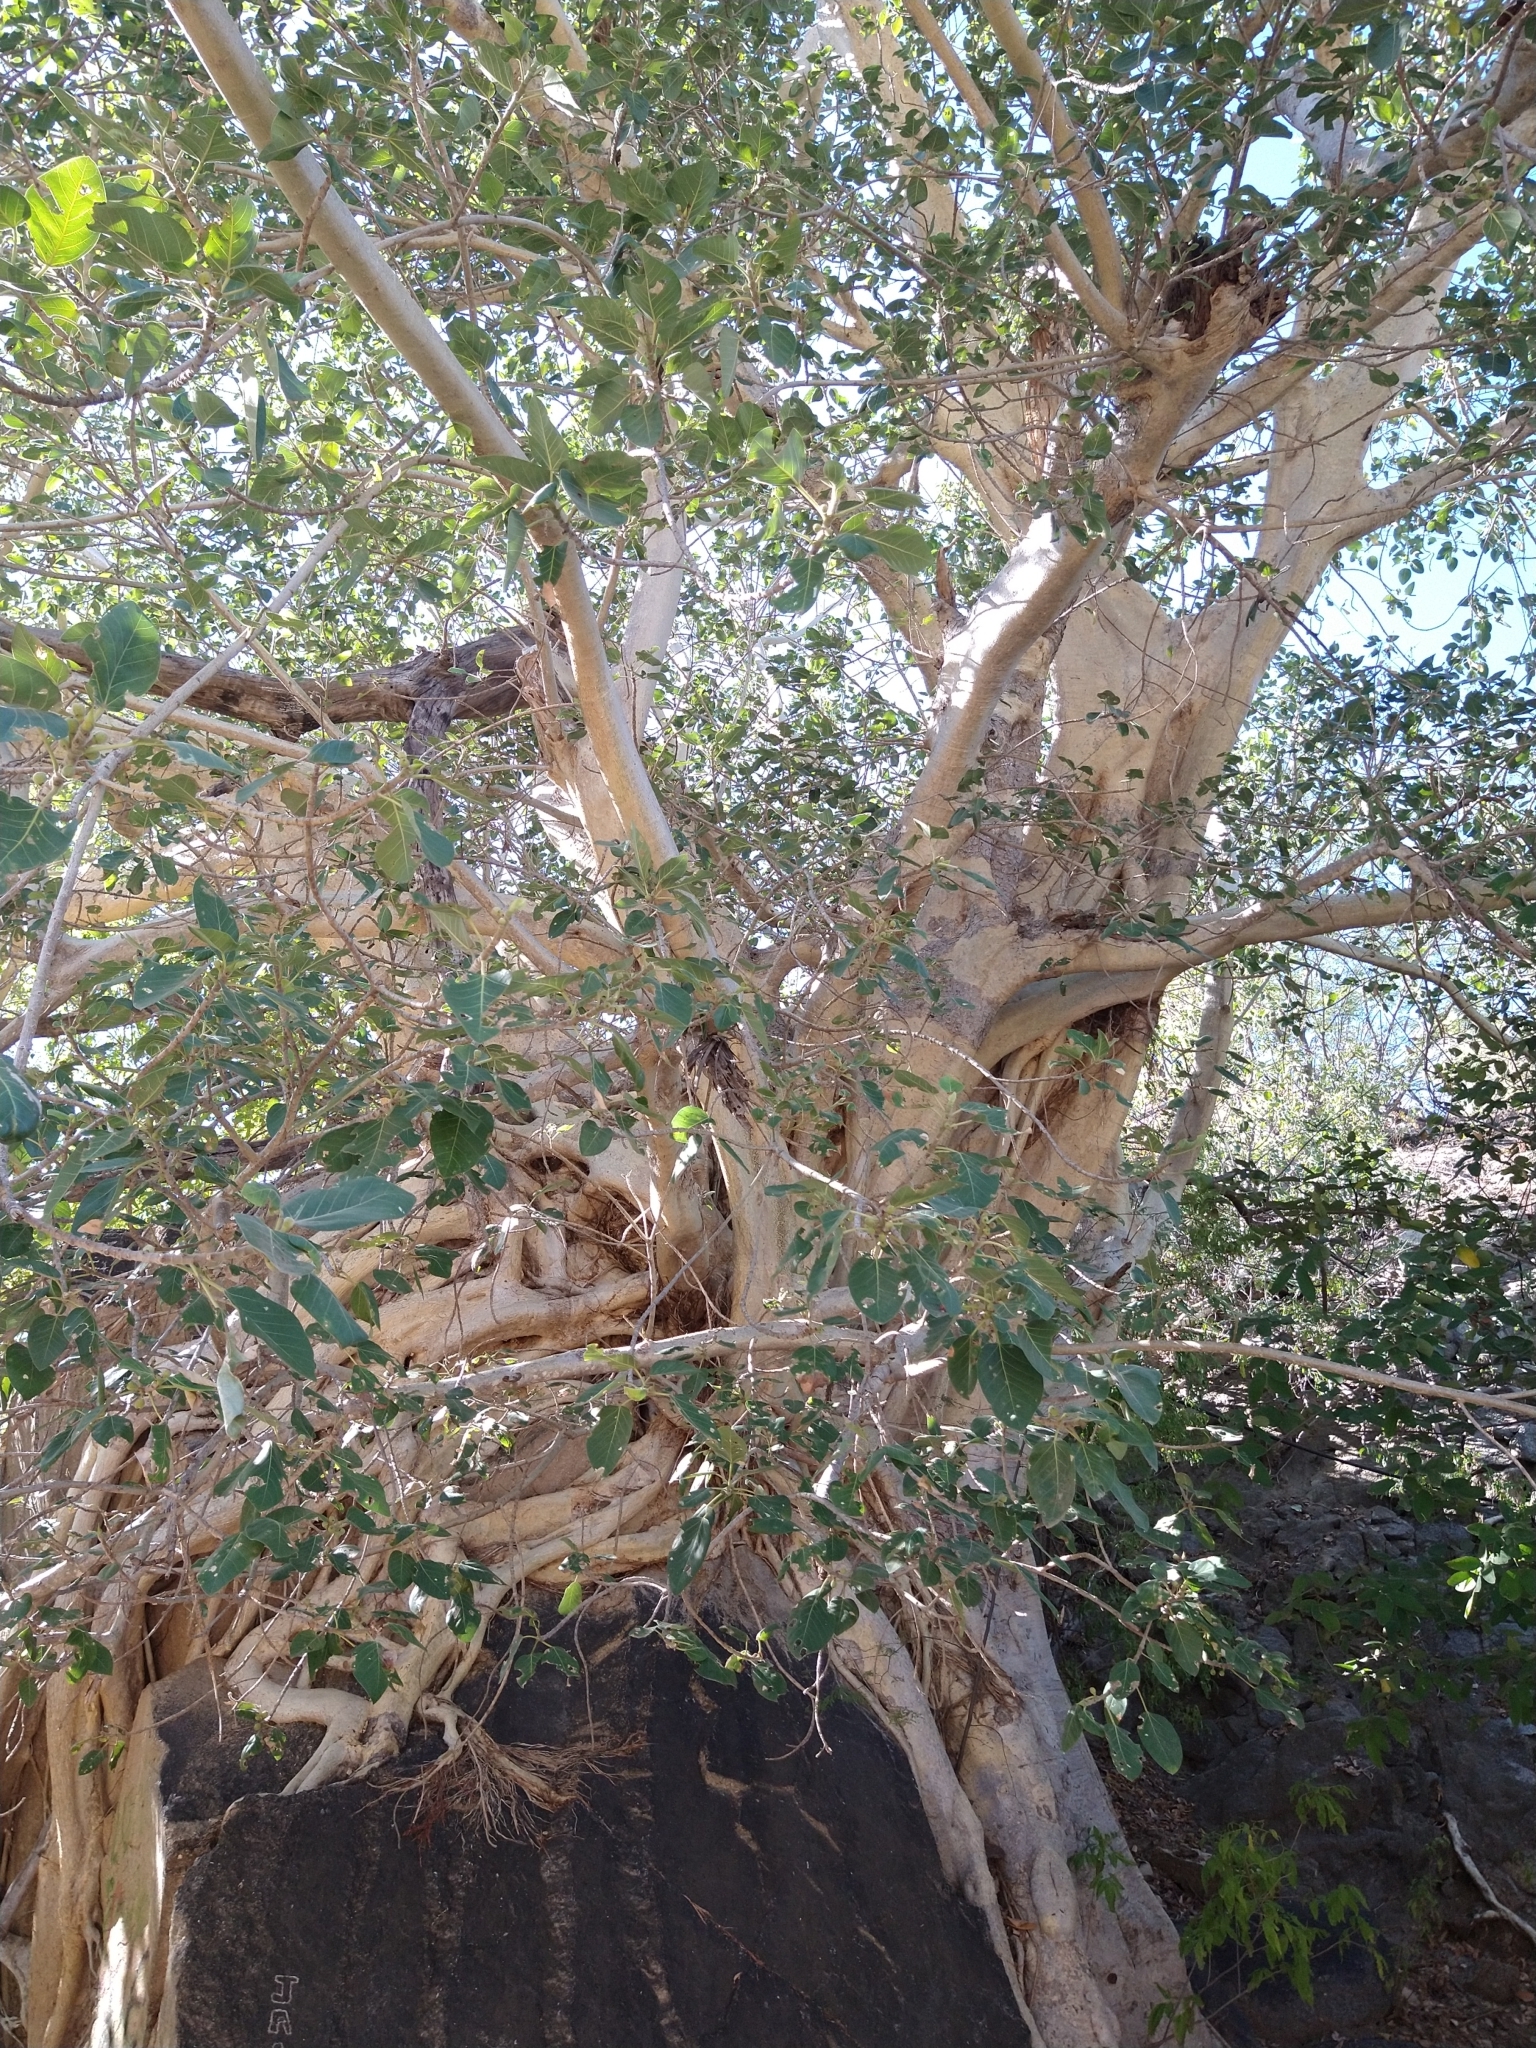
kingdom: Plantae
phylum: Tracheophyta
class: Magnoliopsida
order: Rosales
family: Moraceae
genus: Ficus
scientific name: Ficus petiolaris
